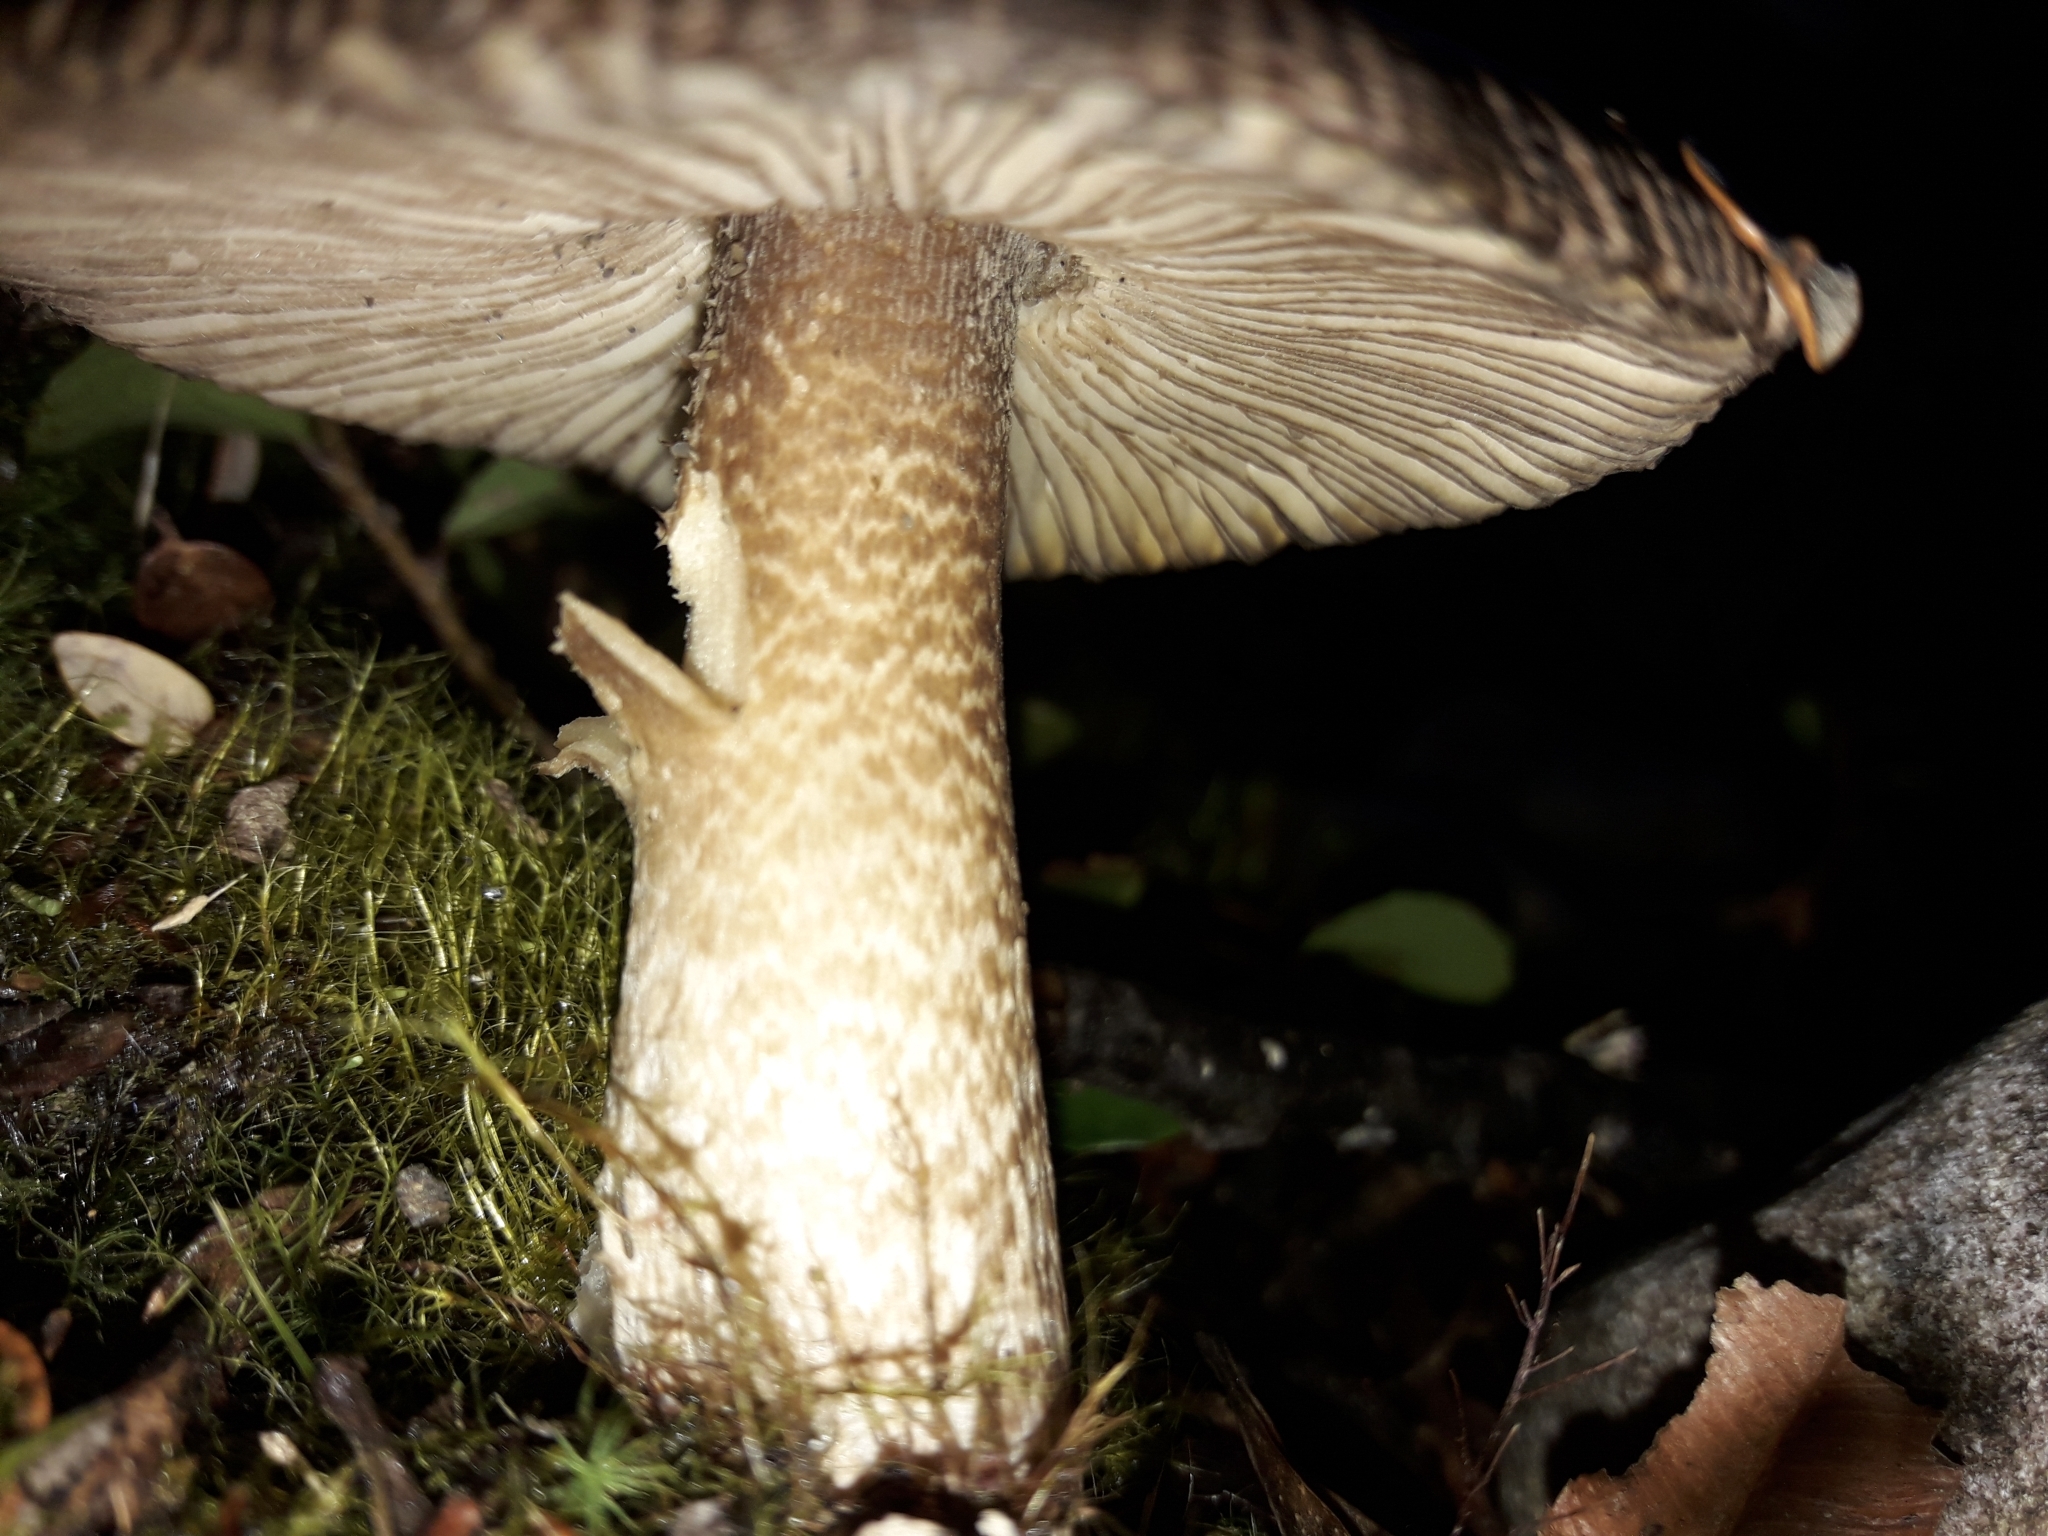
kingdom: Fungi
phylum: Basidiomycota
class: Agaricomycetes
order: Agaricales
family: Amanitaceae
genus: Amanita
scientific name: Amanita pekeoides
